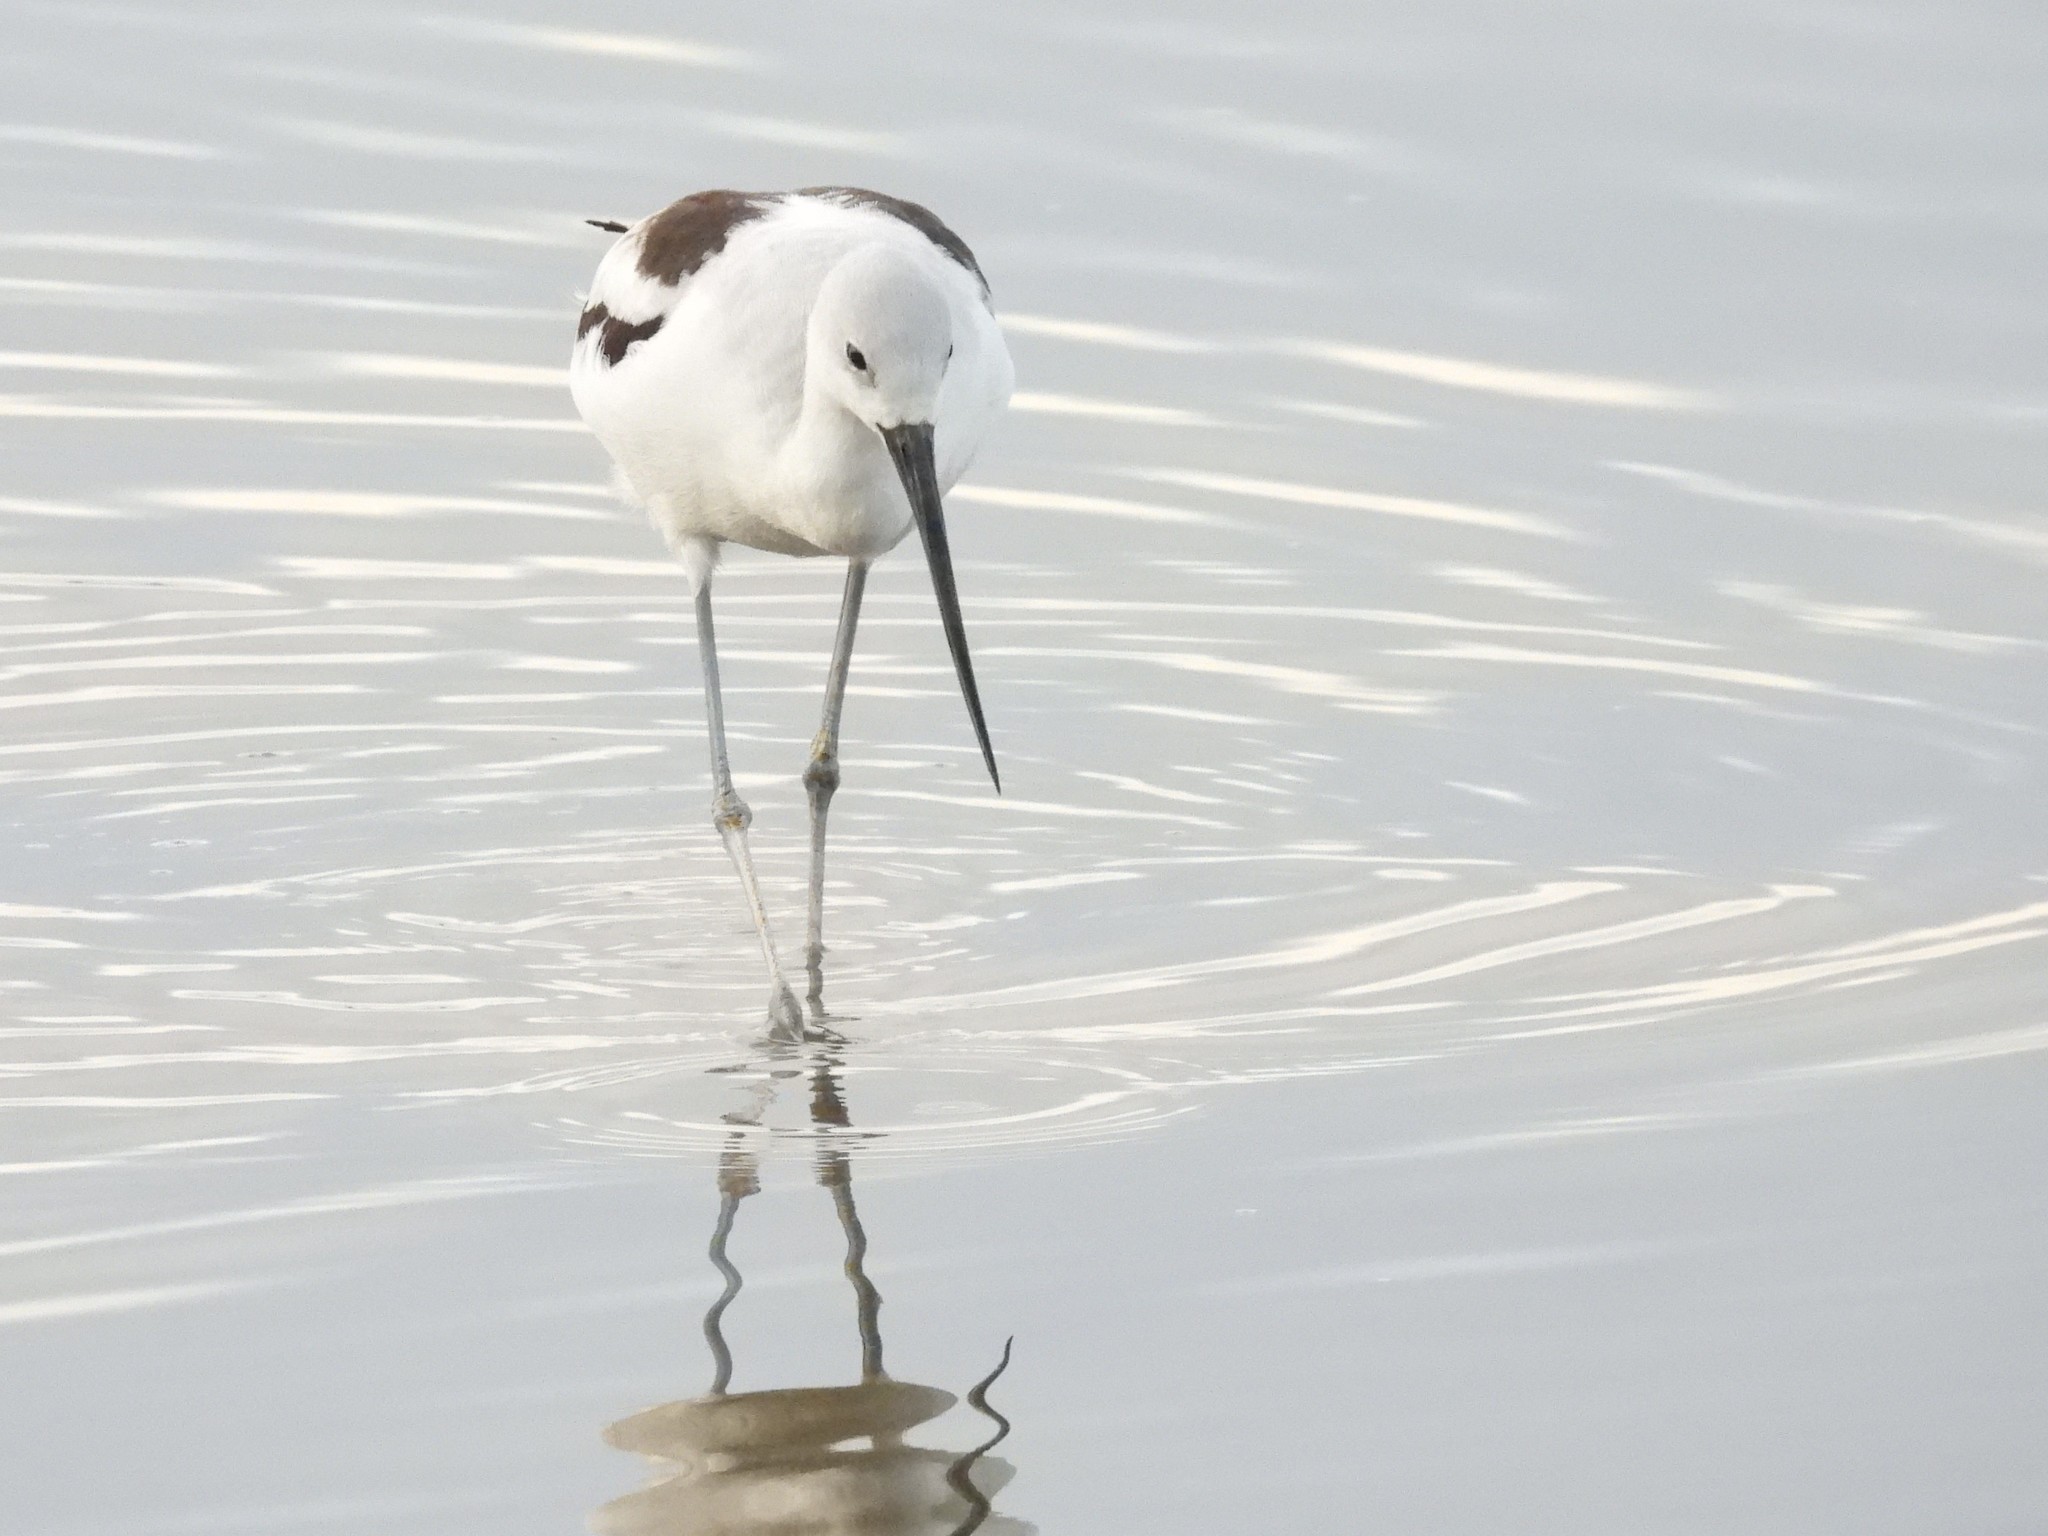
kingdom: Animalia
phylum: Chordata
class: Aves
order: Charadriiformes
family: Recurvirostridae
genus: Recurvirostra
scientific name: Recurvirostra americana
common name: American avocet
